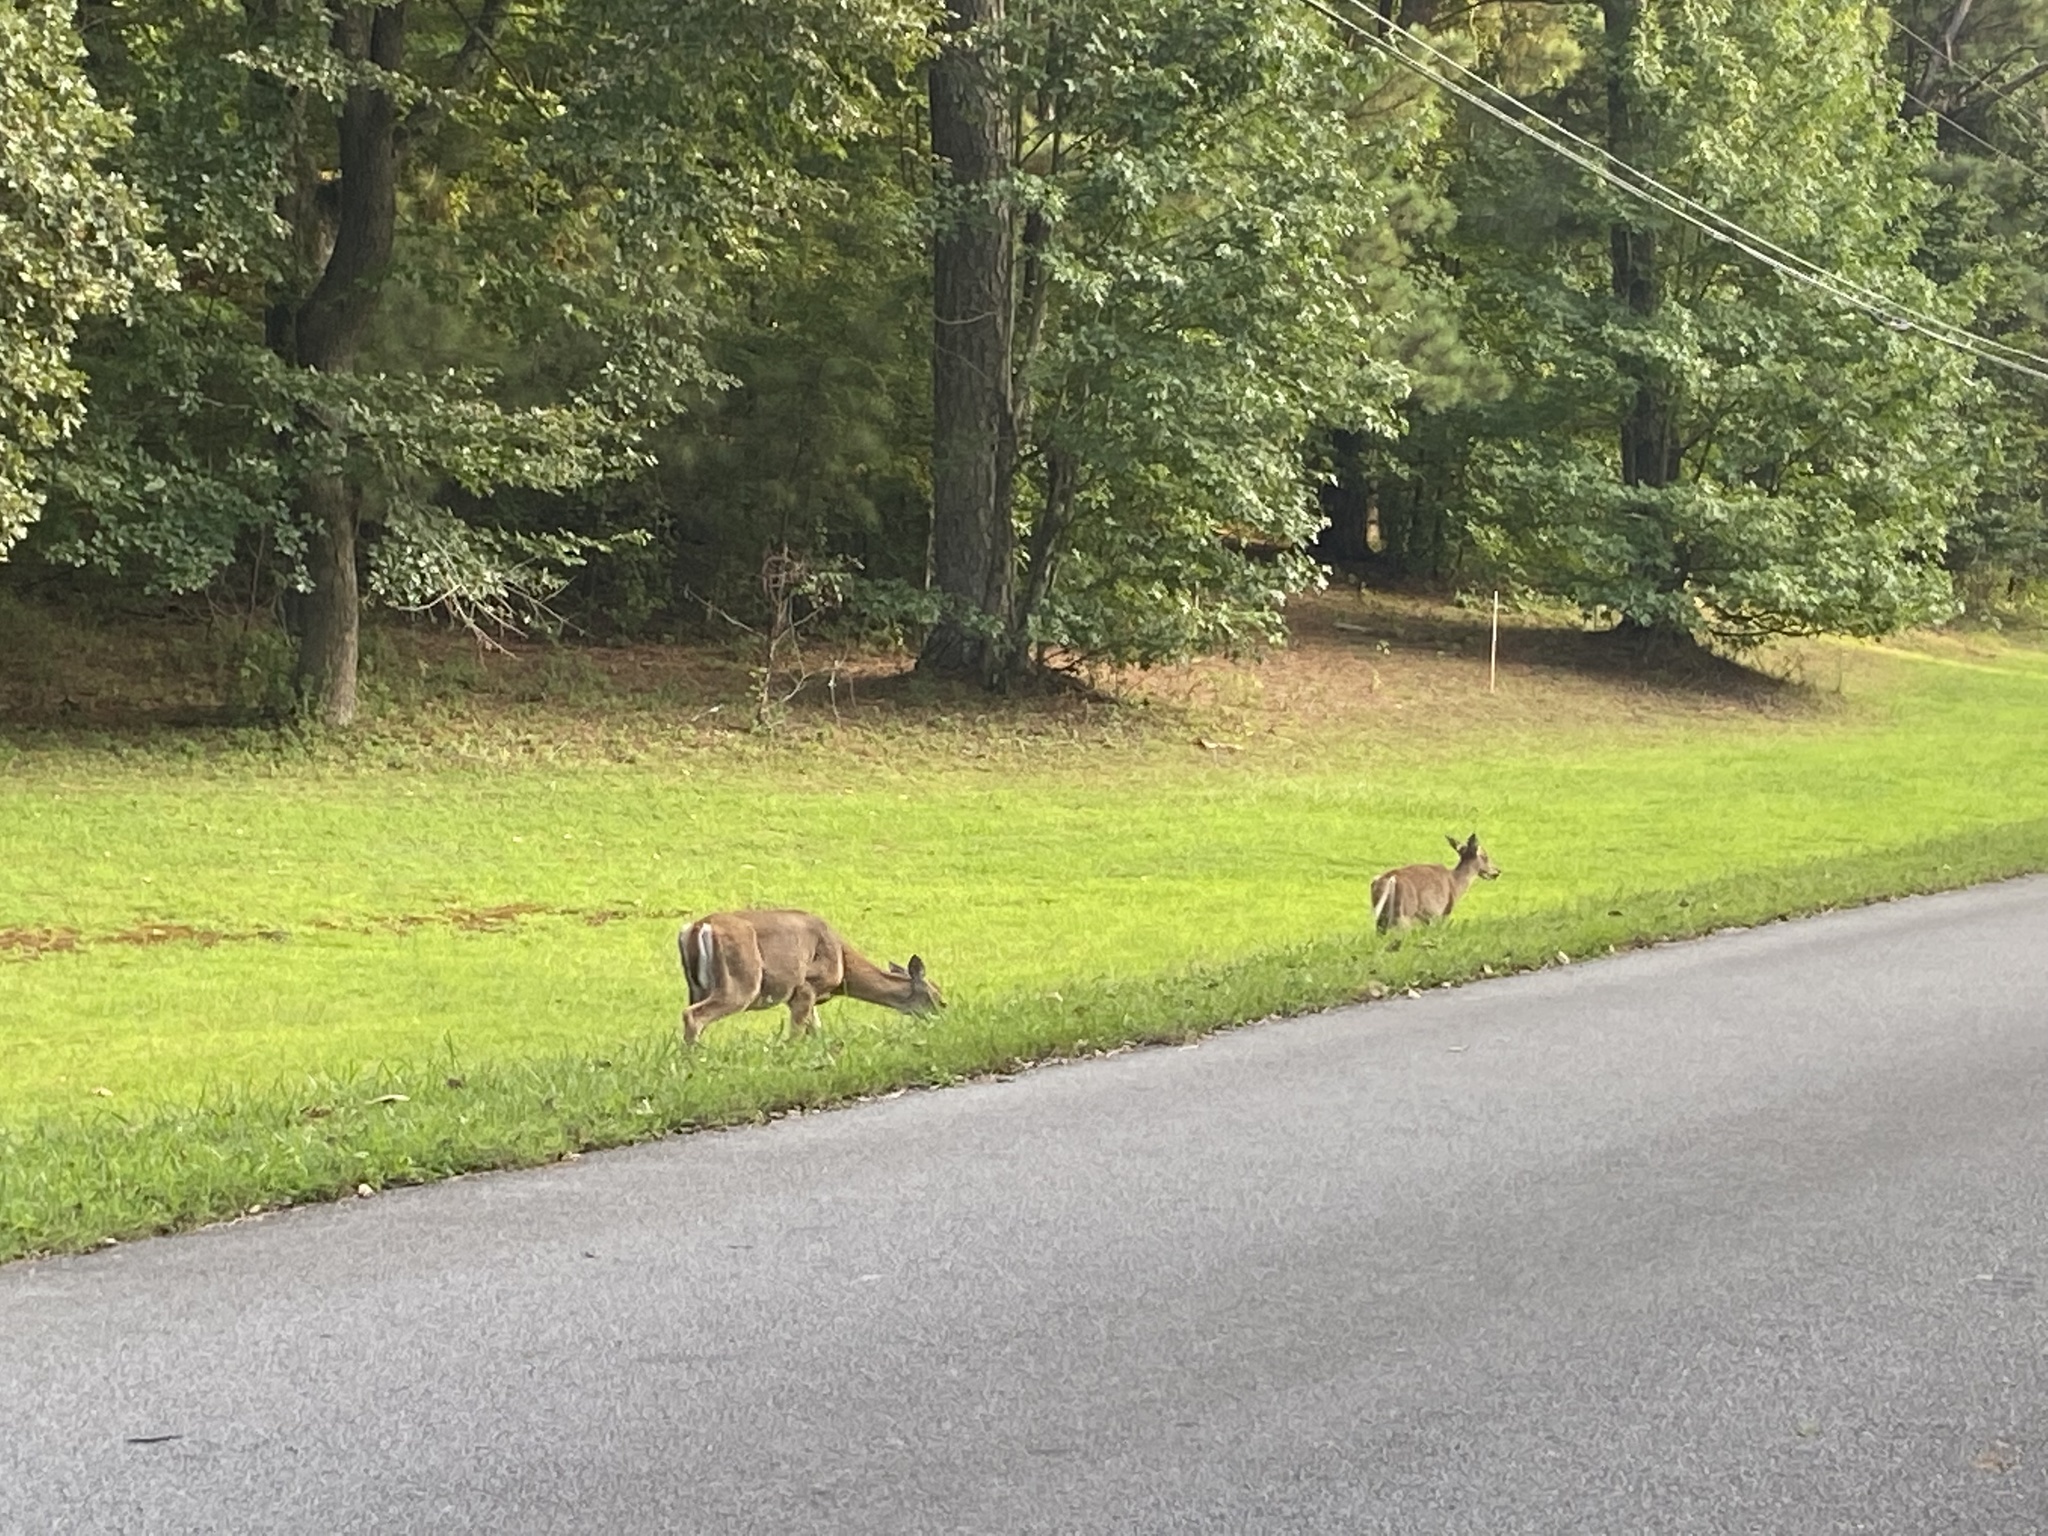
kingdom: Animalia
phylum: Chordata
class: Mammalia
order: Artiodactyla
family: Cervidae
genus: Odocoileus
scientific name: Odocoileus virginianus
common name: White-tailed deer
